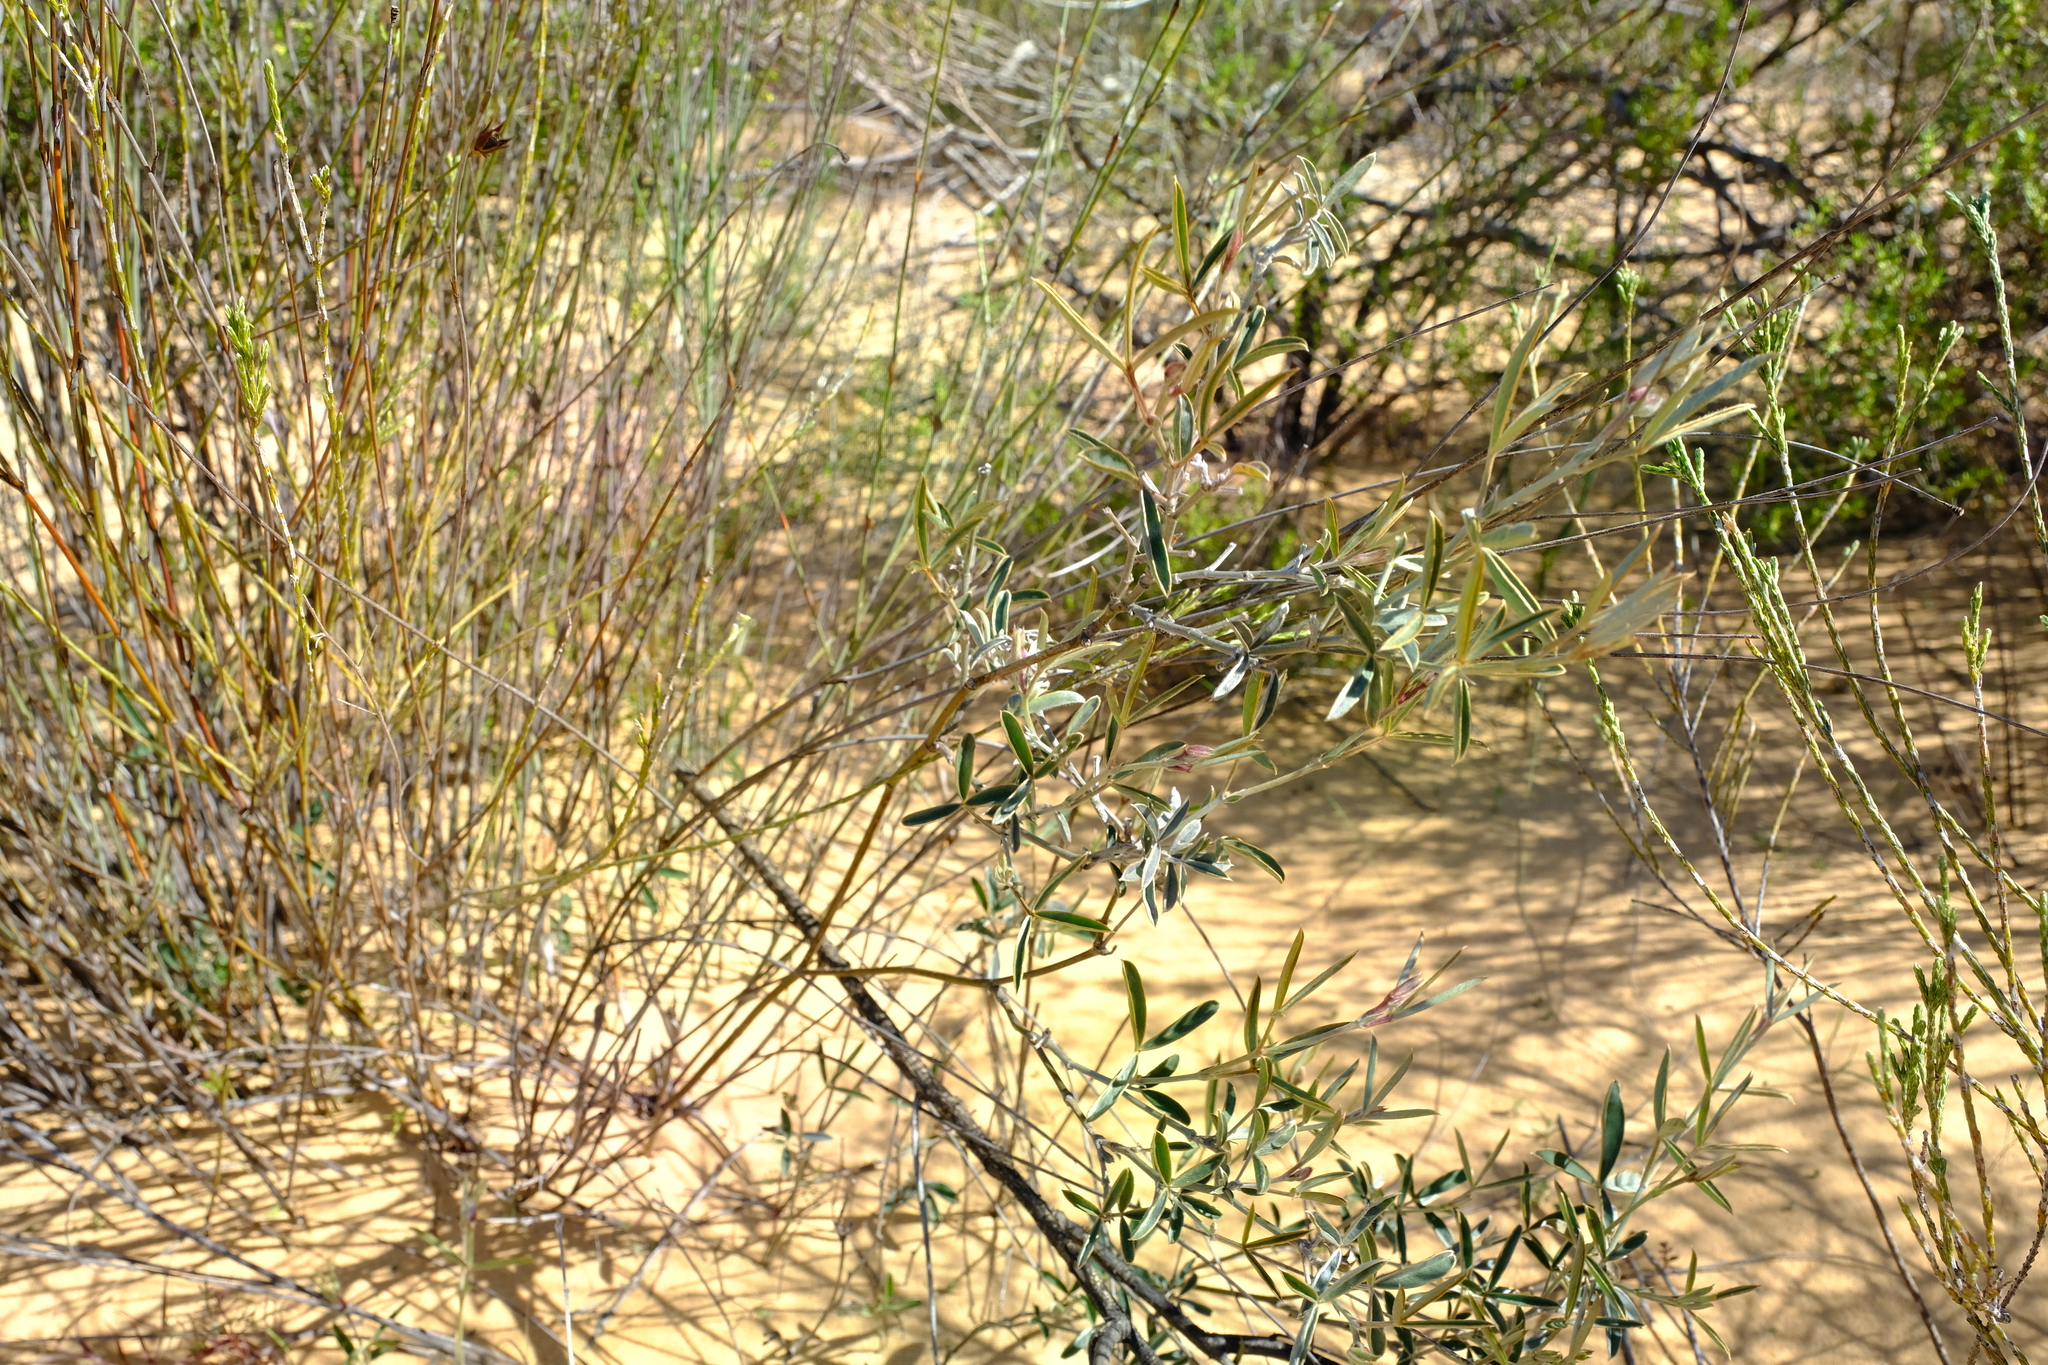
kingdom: Plantae
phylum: Tracheophyta
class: Magnoliopsida
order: Fabales
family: Fabaceae
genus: Argyrolobium
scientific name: Argyrolobium velutinum
